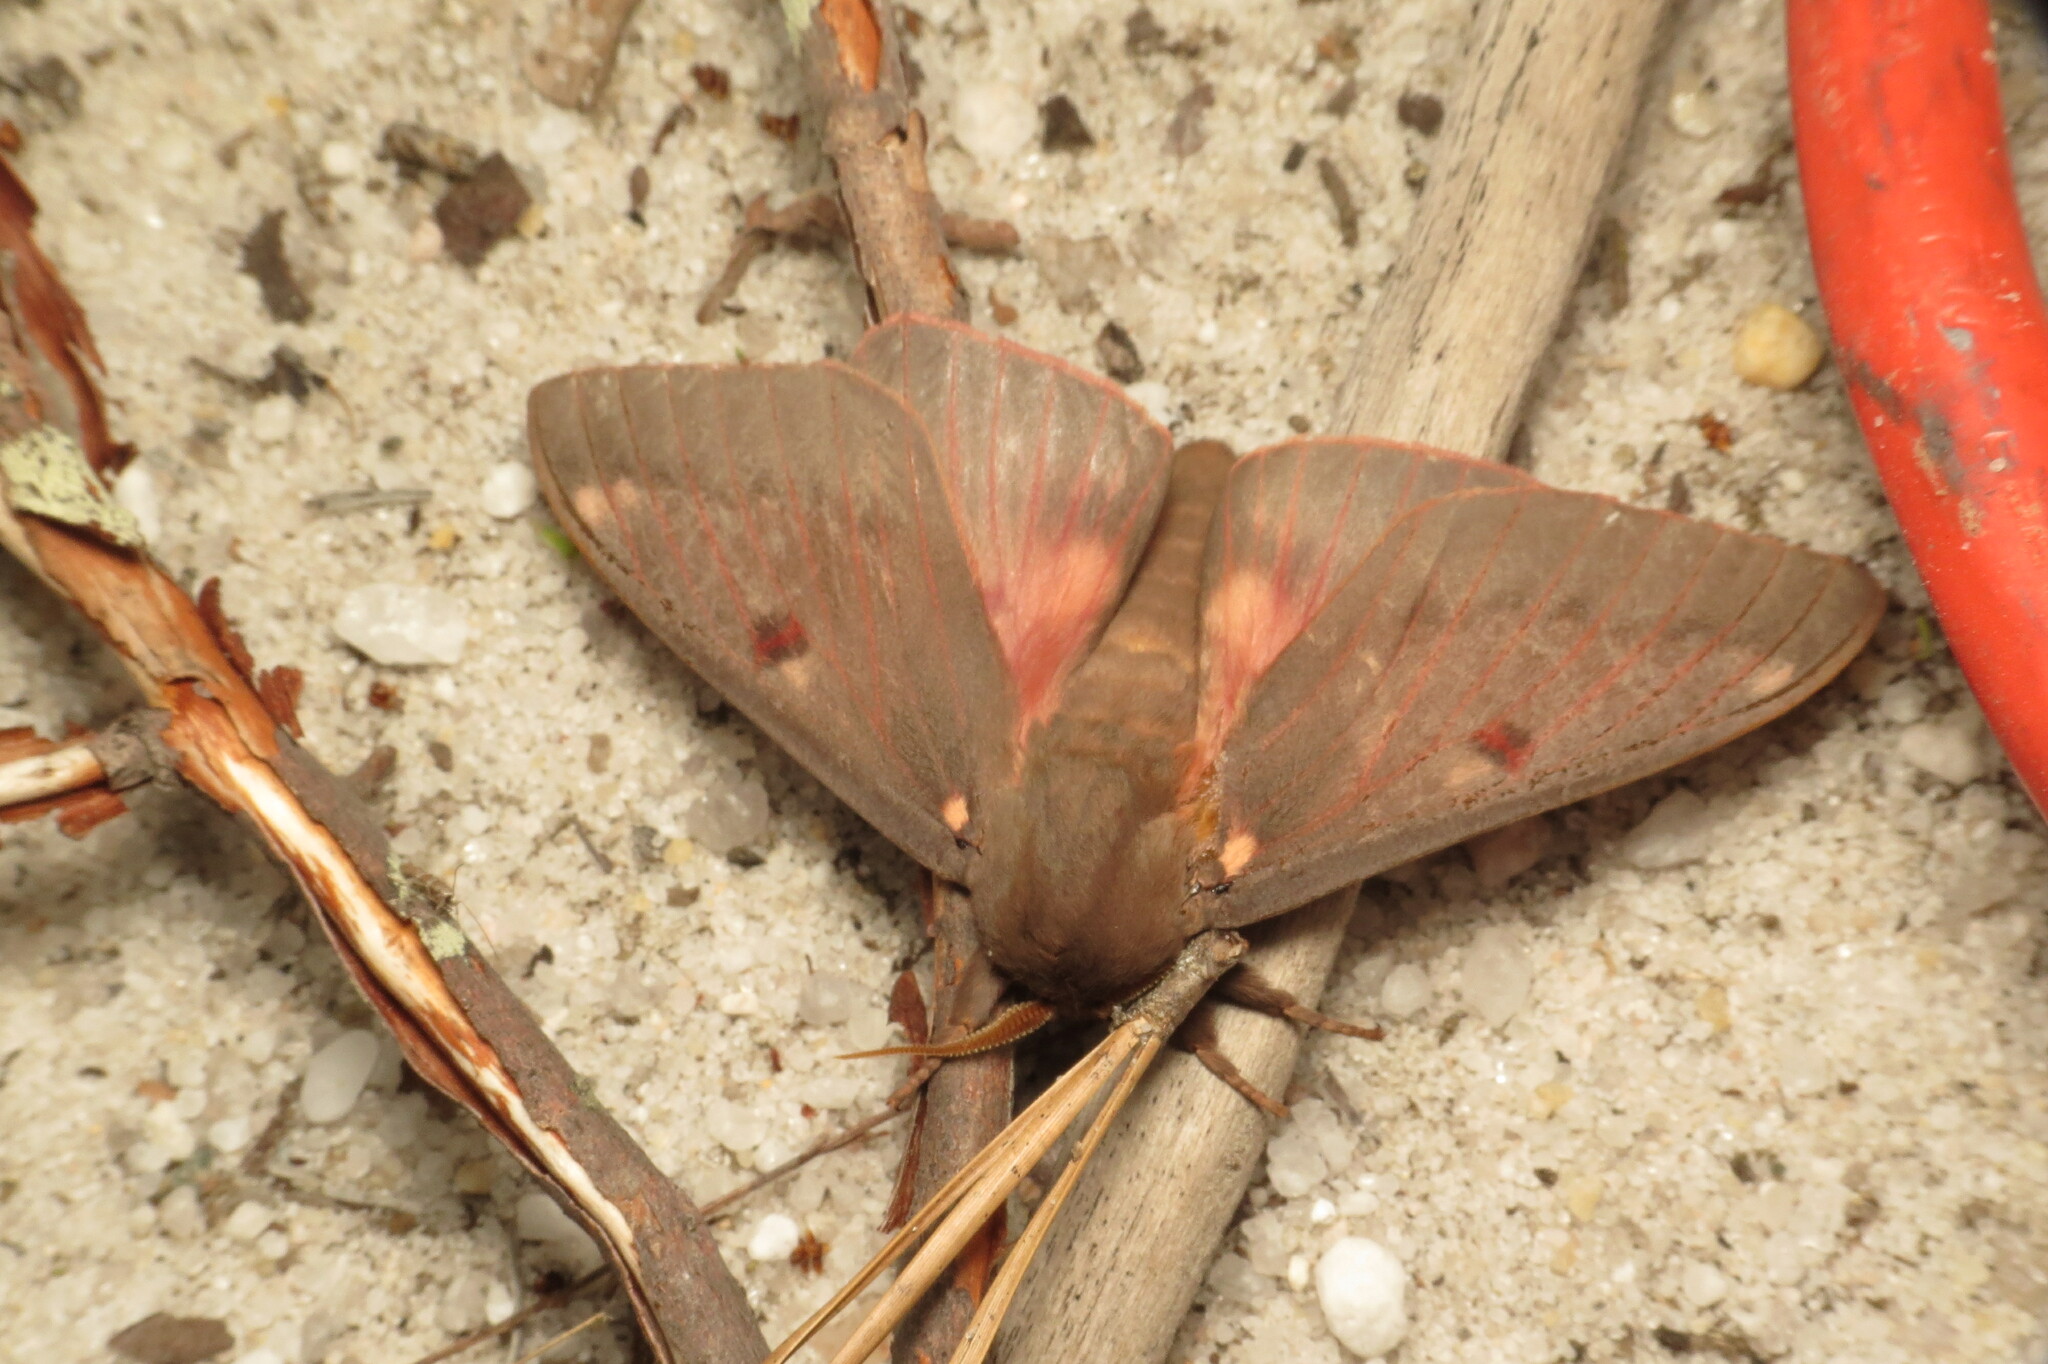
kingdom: Animalia
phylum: Arthropoda
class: Insecta
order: Lepidoptera
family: Saturniidae
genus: Citheronia
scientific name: Citheronia sepulcralis
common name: Pine-devil moth
